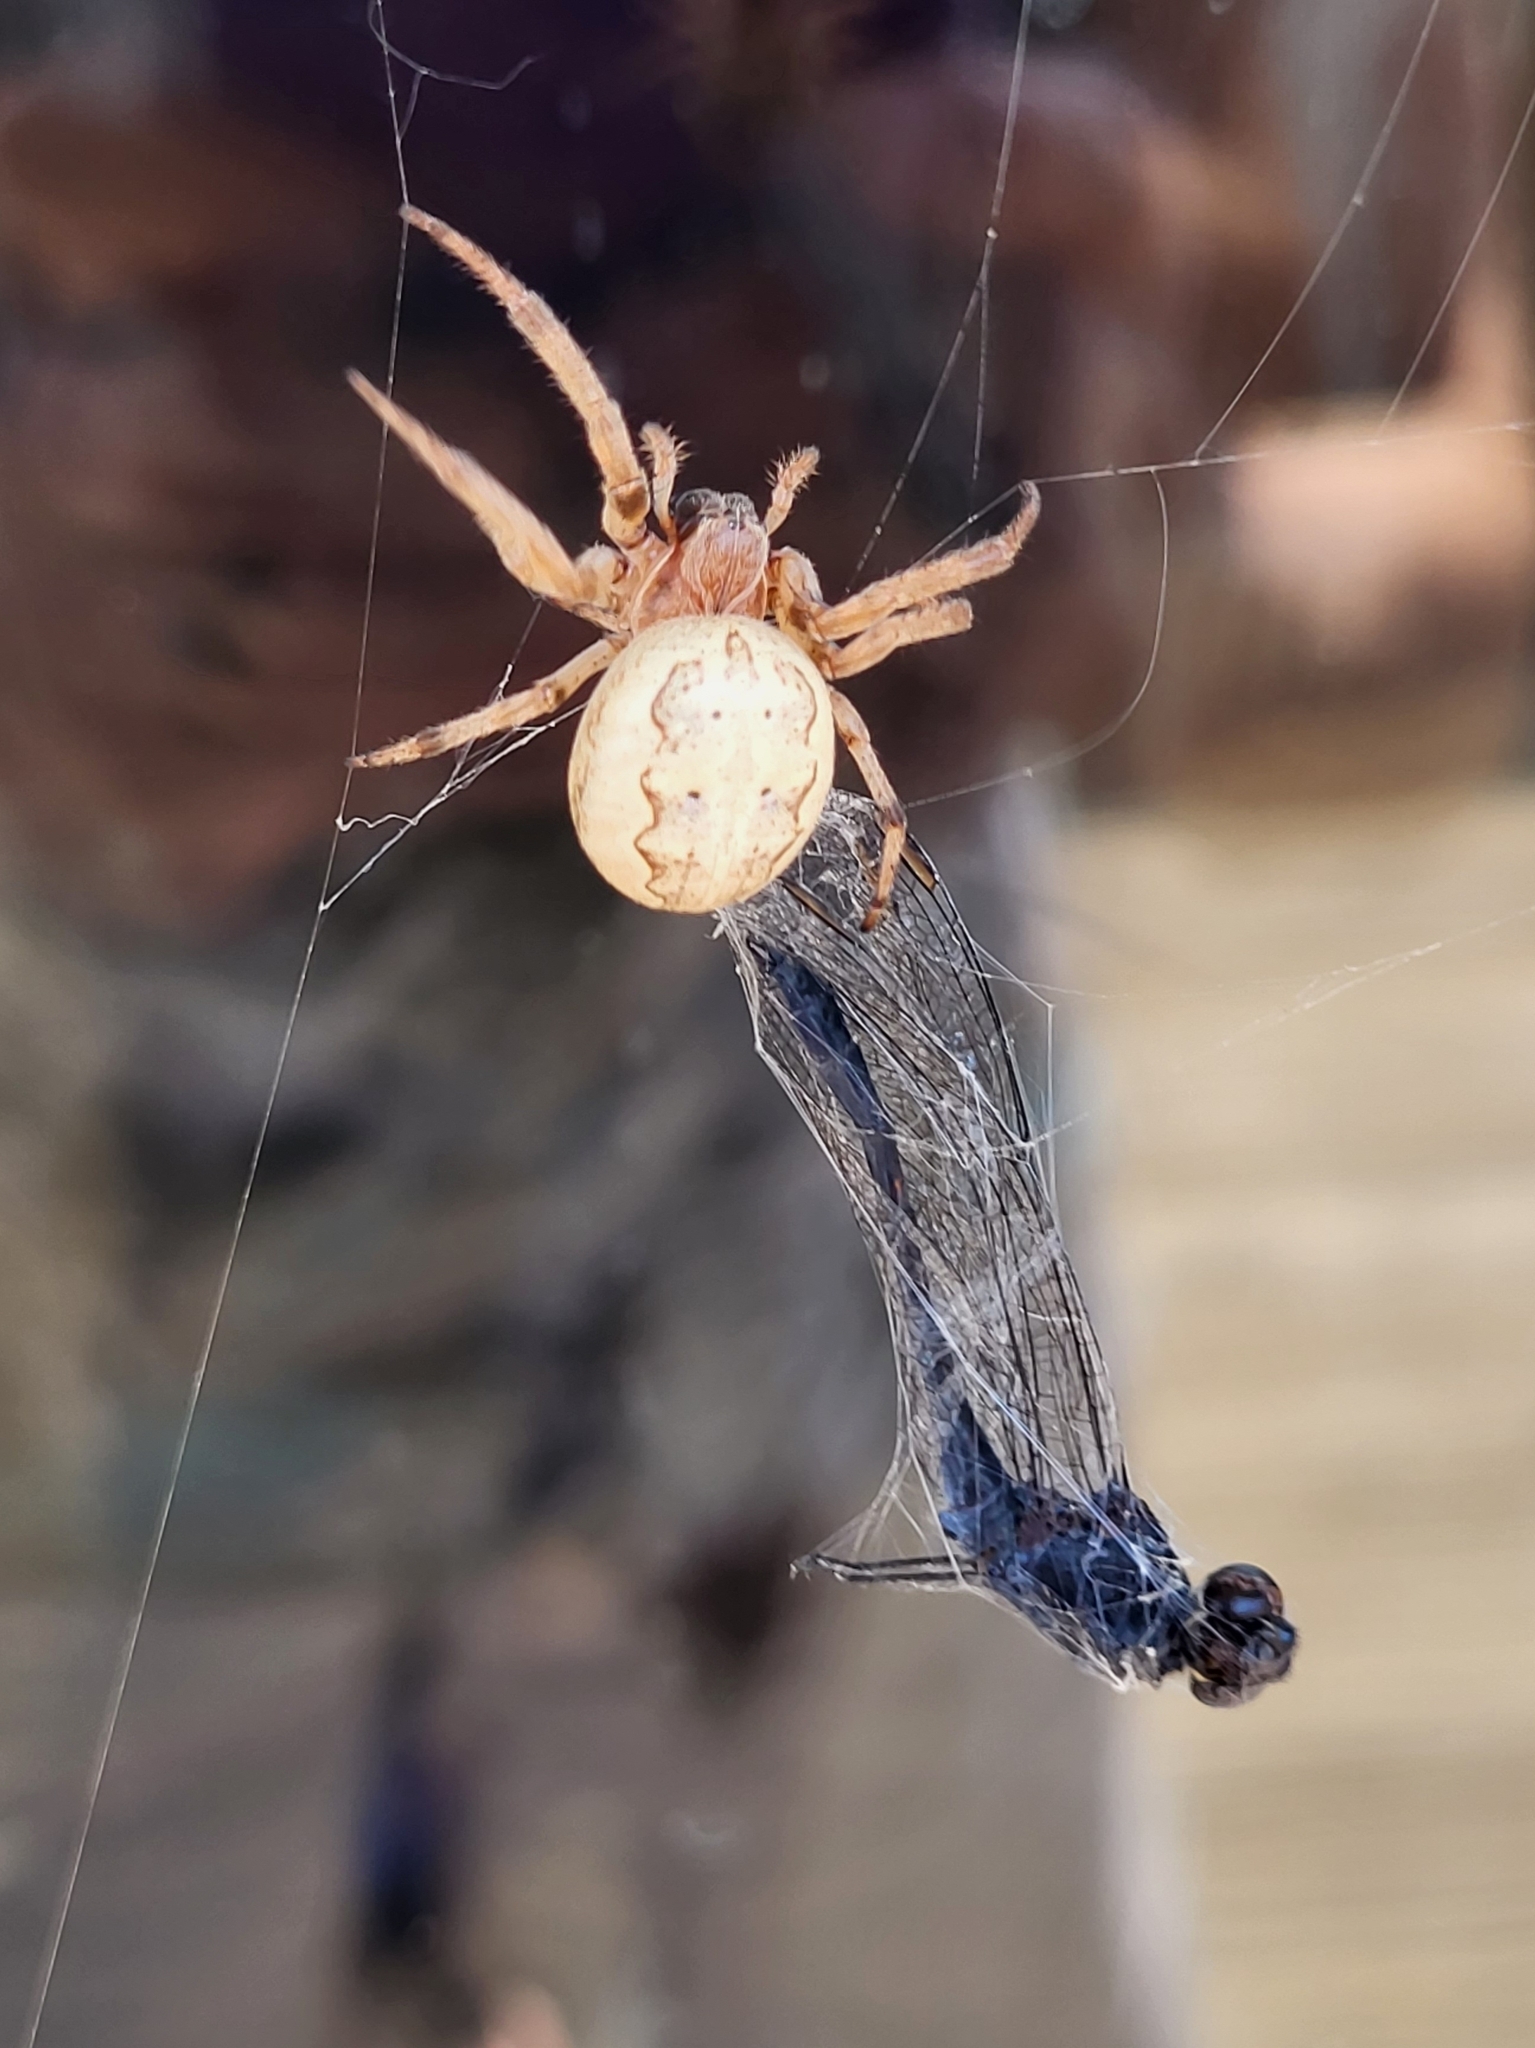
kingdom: Animalia
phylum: Arthropoda
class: Insecta
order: Odonata
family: Libellulidae
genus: Erythrodiplax
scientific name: Erythrodiplax berenice
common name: Seaside dragonlet
